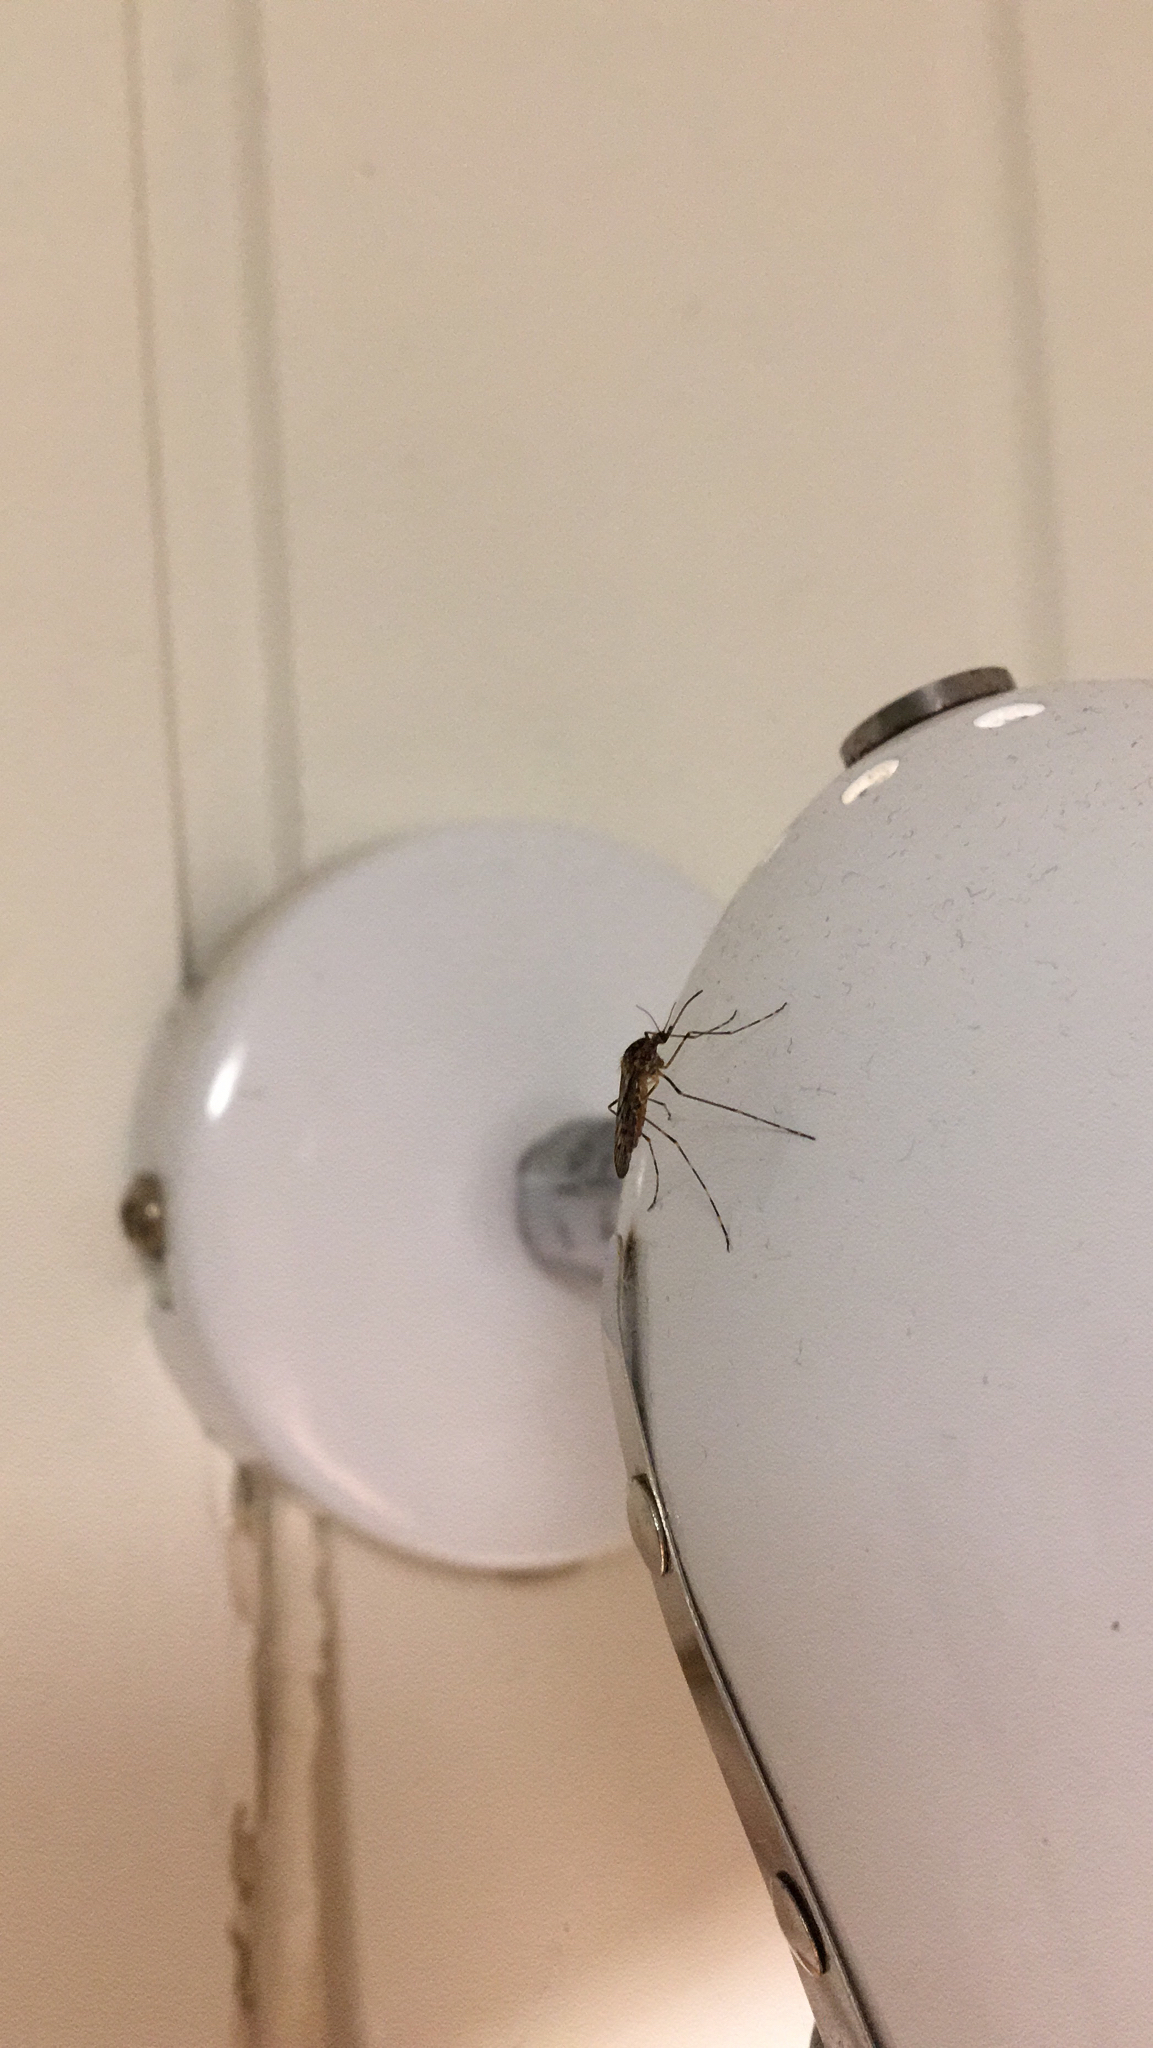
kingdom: Animalia
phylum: Arthropoda
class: Insecta
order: Diptera
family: Culicidae
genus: Culiseta
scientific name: Culiseta annulata
